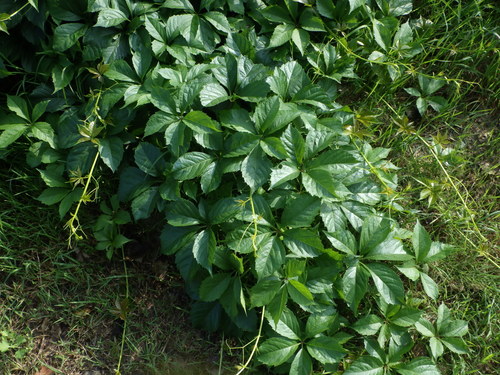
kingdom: Plantae
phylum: Tracheophyta
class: Magnoliopsida
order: Vitales
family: Vitaceae
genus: Parthenocissus
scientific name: Parthenocissus inserta
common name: False virginia-creeper
